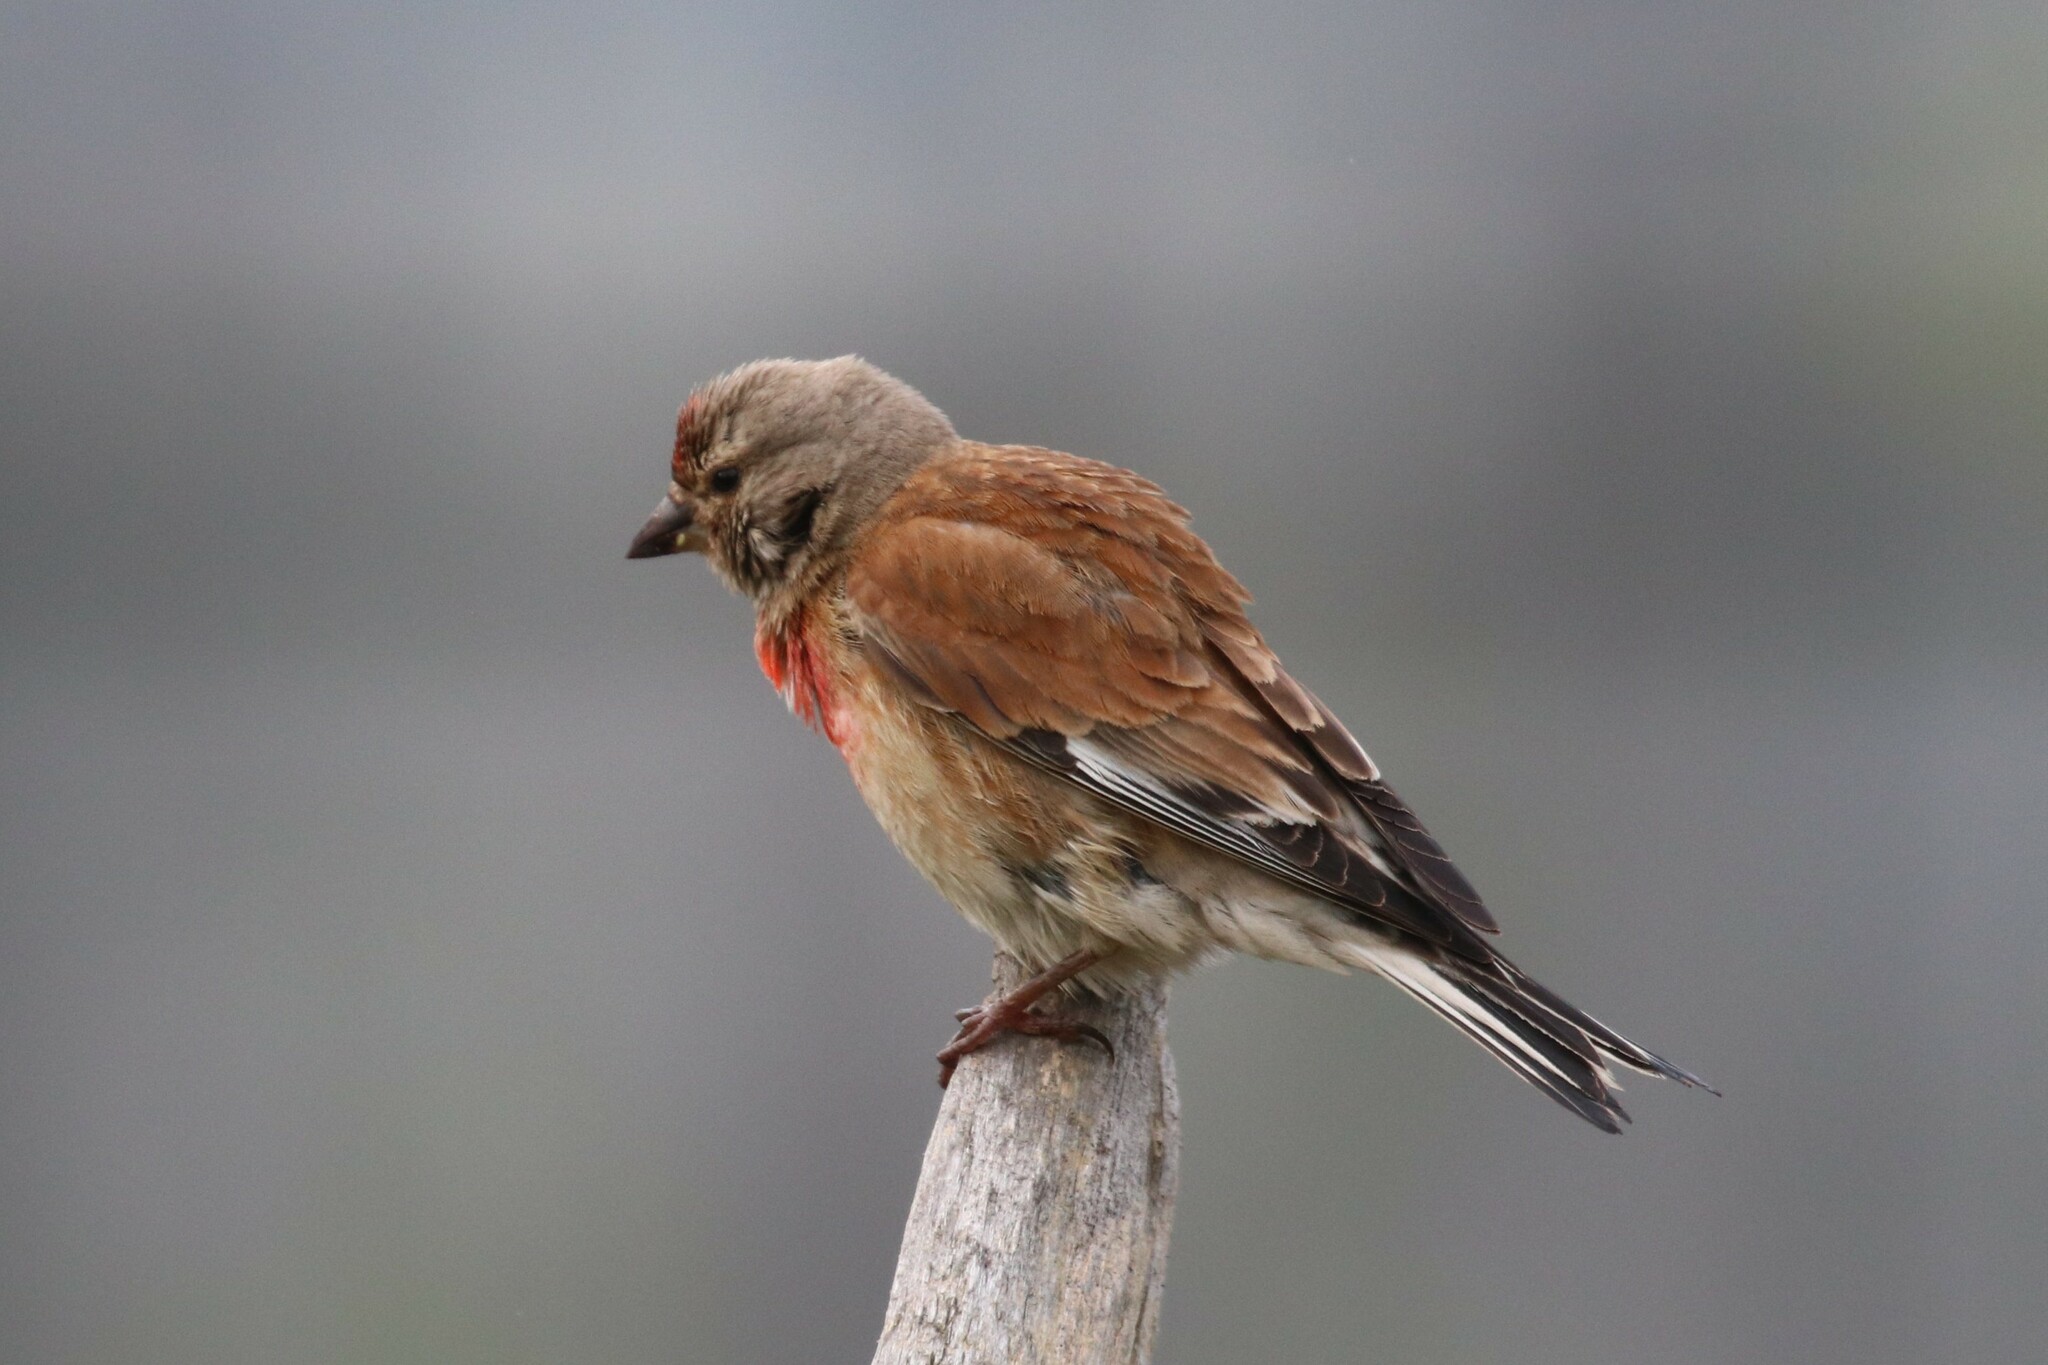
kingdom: Animalia
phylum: Chordata
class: Aves
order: Passeriformes
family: Fringillidae
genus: Linaria
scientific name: Linaria cannabina
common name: Common linnet
